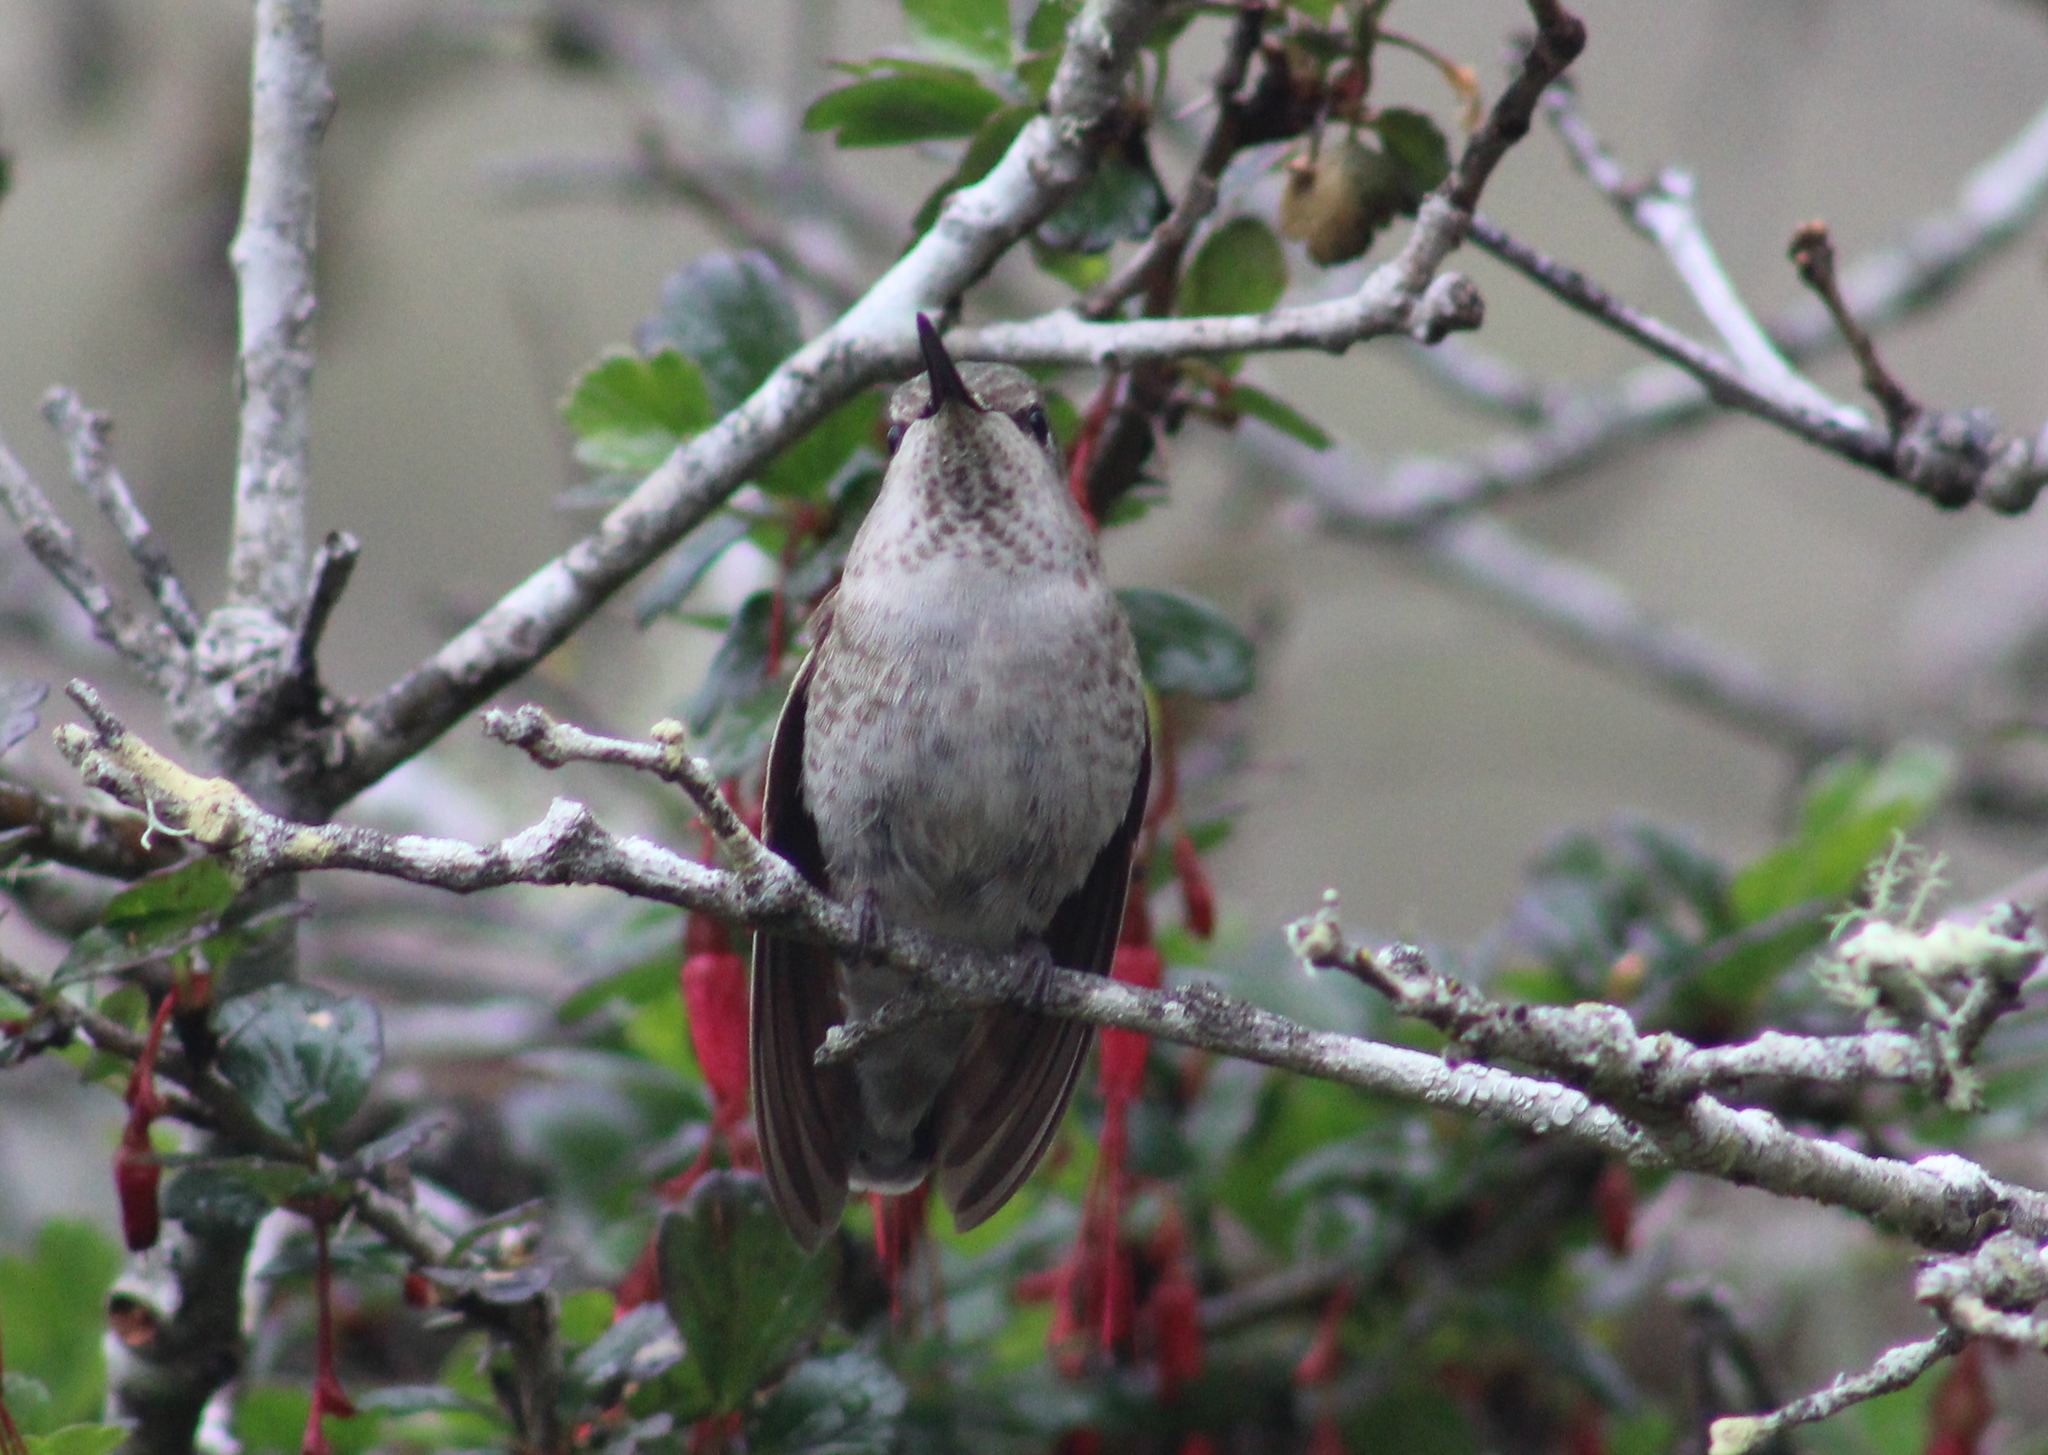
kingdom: Animalia
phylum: Chordata
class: Aves
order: Apodiformes
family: Trochilidae
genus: Calypte
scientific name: Calypte anna
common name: Anna's hummingbird
